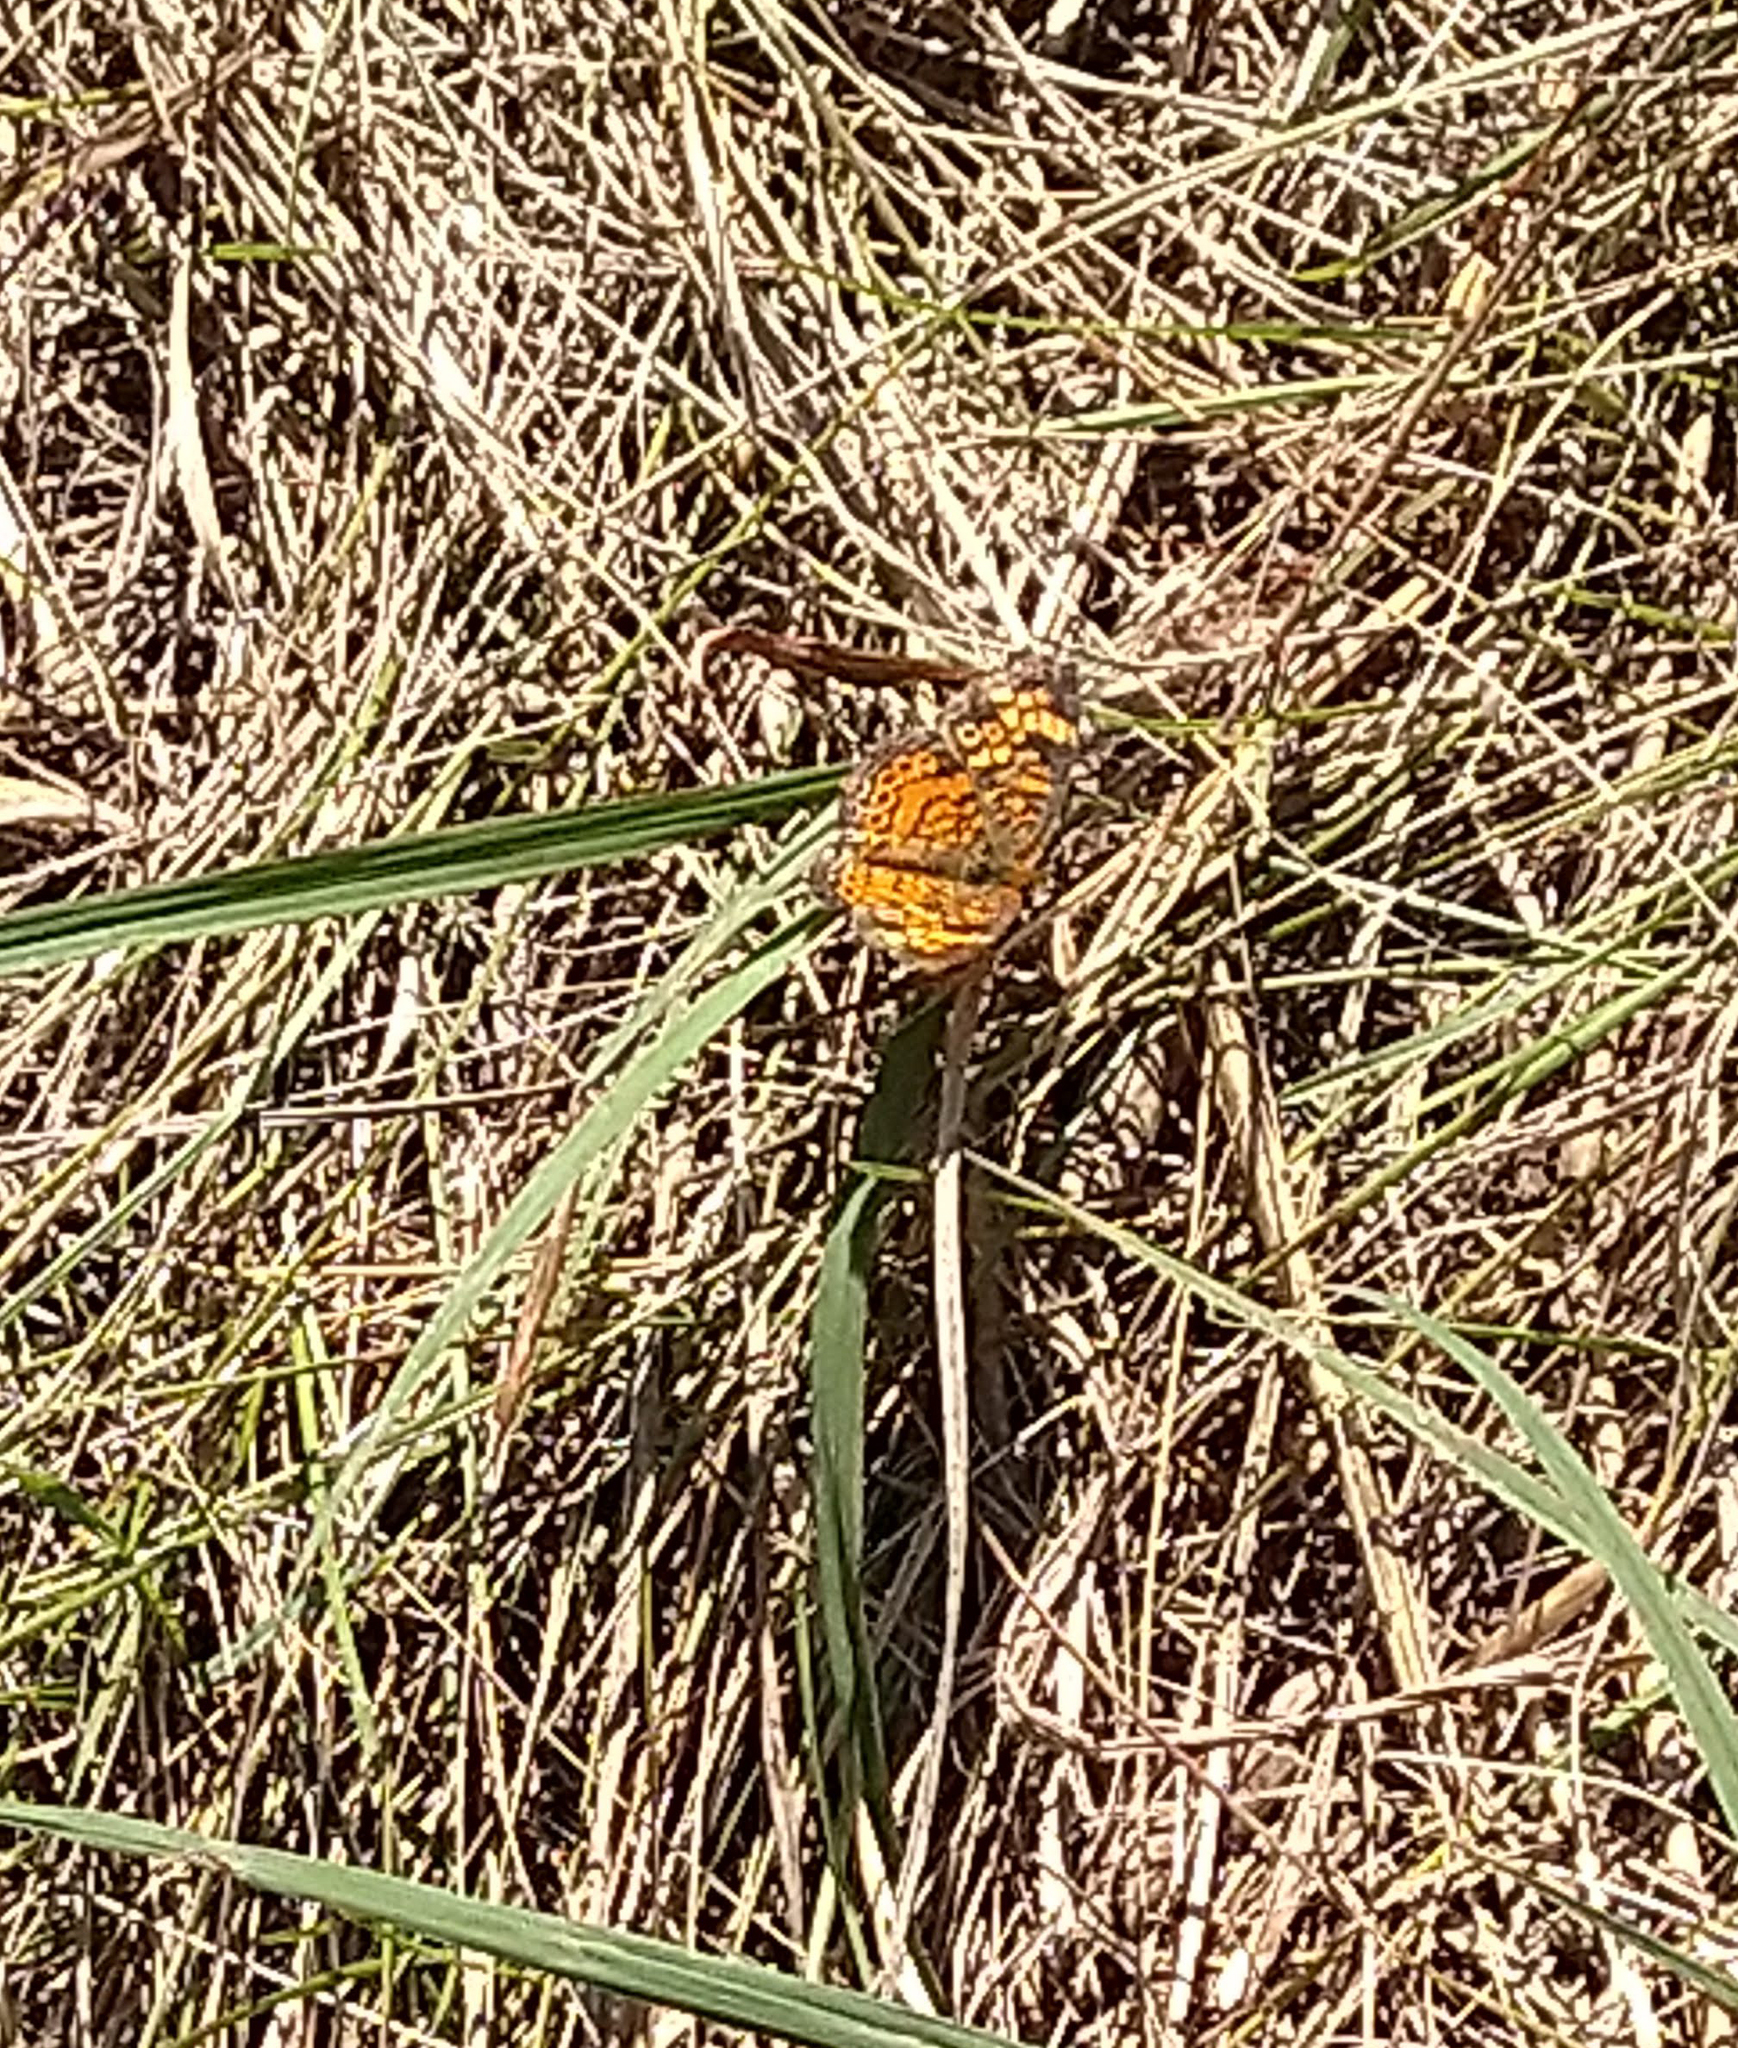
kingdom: Animalia
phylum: Arthropoda
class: Insecta
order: Lepidoptera
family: Nymphalidae
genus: Phyciodes
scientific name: Phyciodes tharos
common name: Pearl crescent
